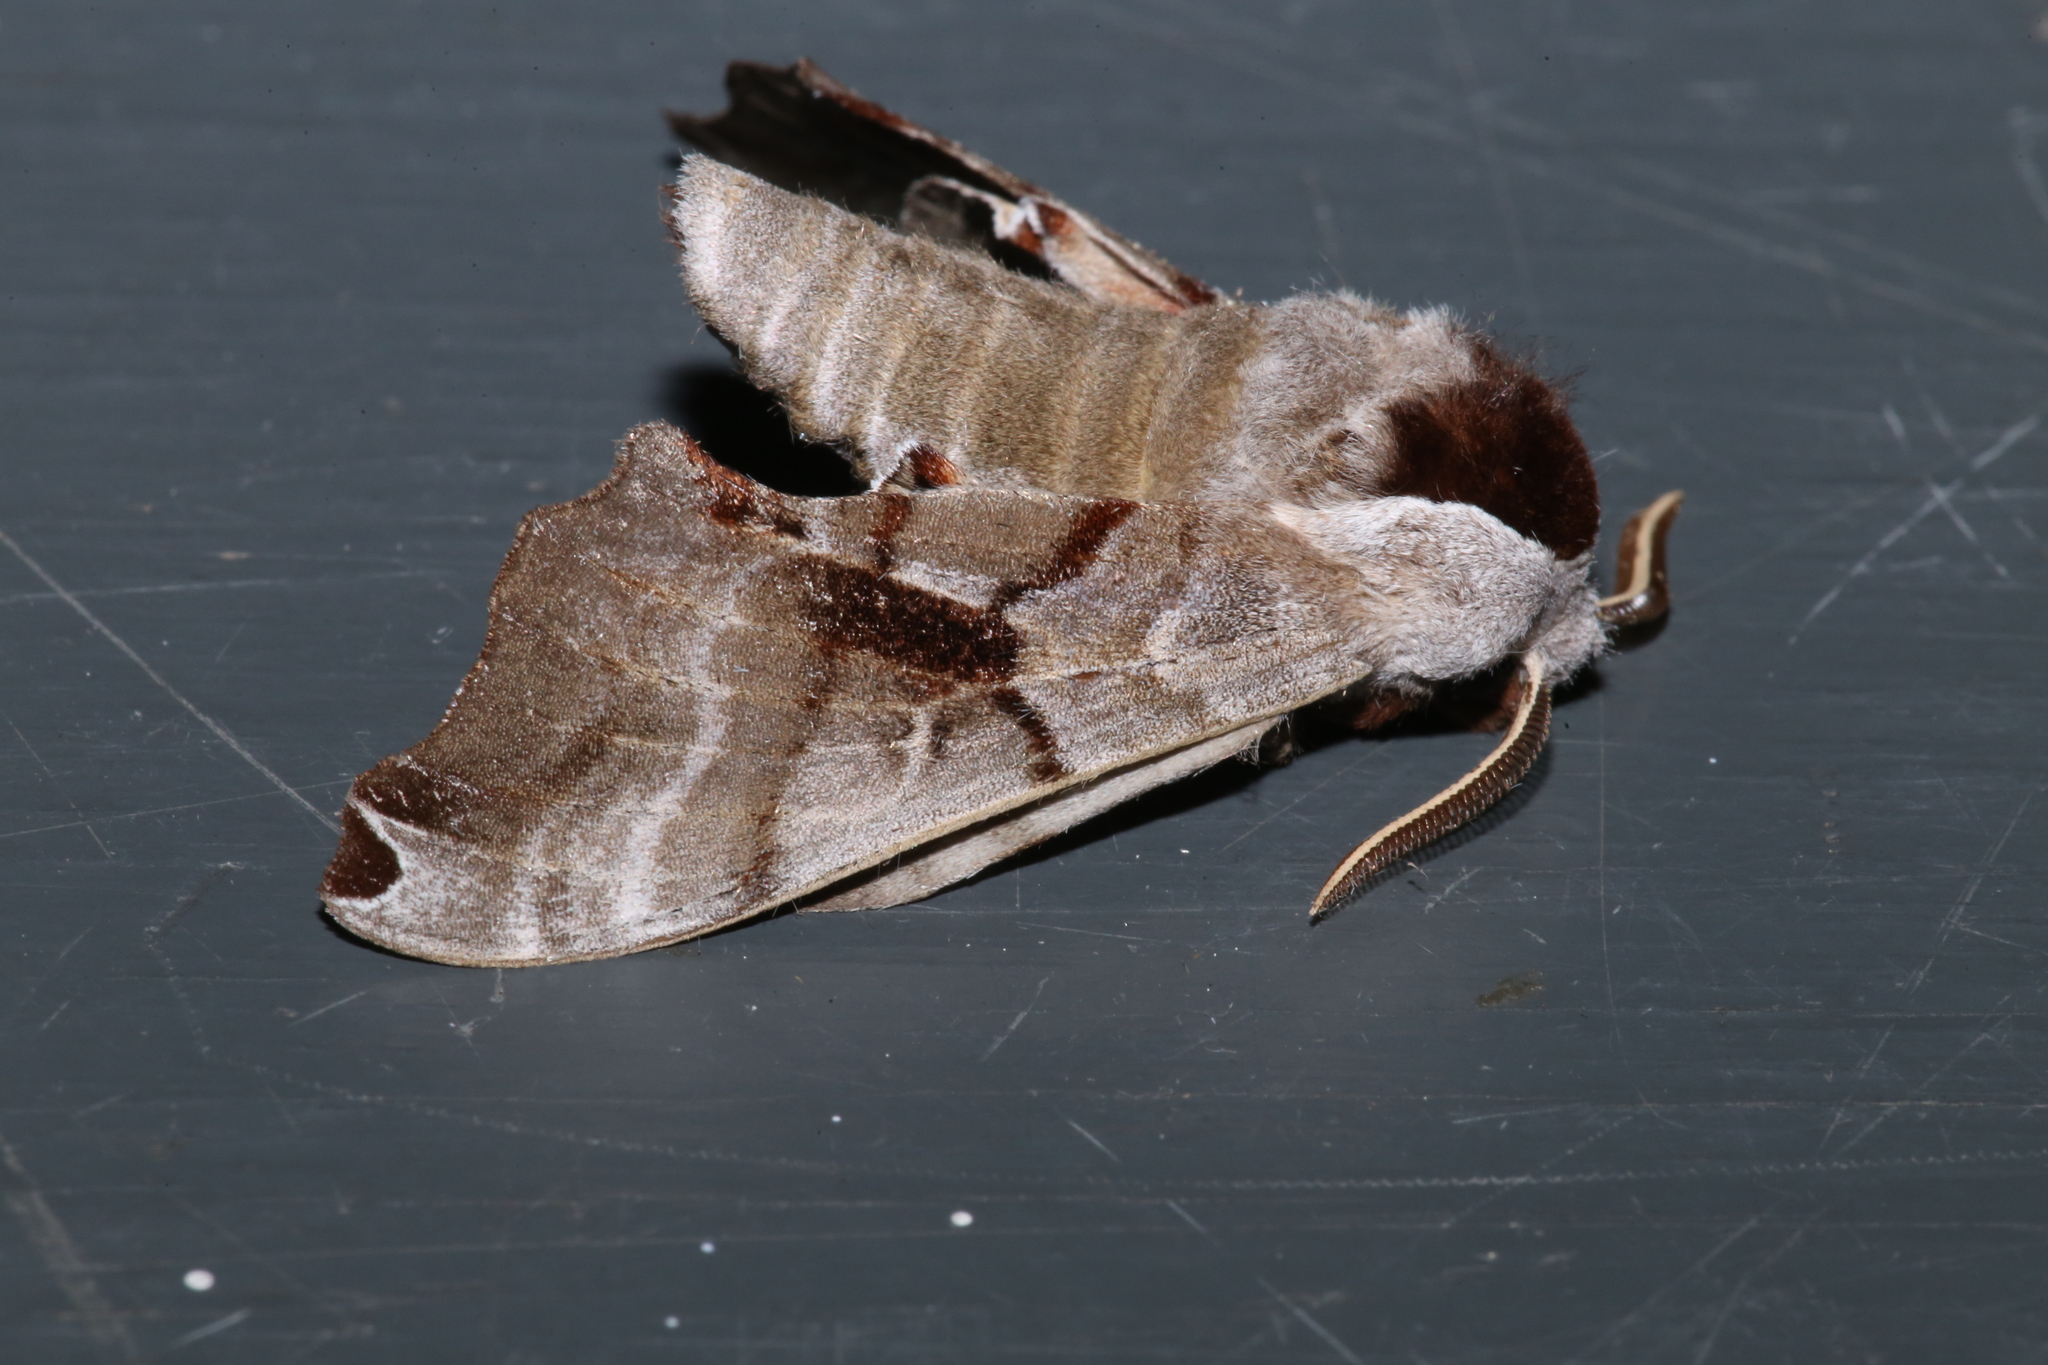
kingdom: Animalia
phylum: Arthropoda
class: Insecta
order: Lepidoptera
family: Sphingidae
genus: Smerinthus
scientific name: Smerinthus jamaicensis
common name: Twin spotted sphinx
